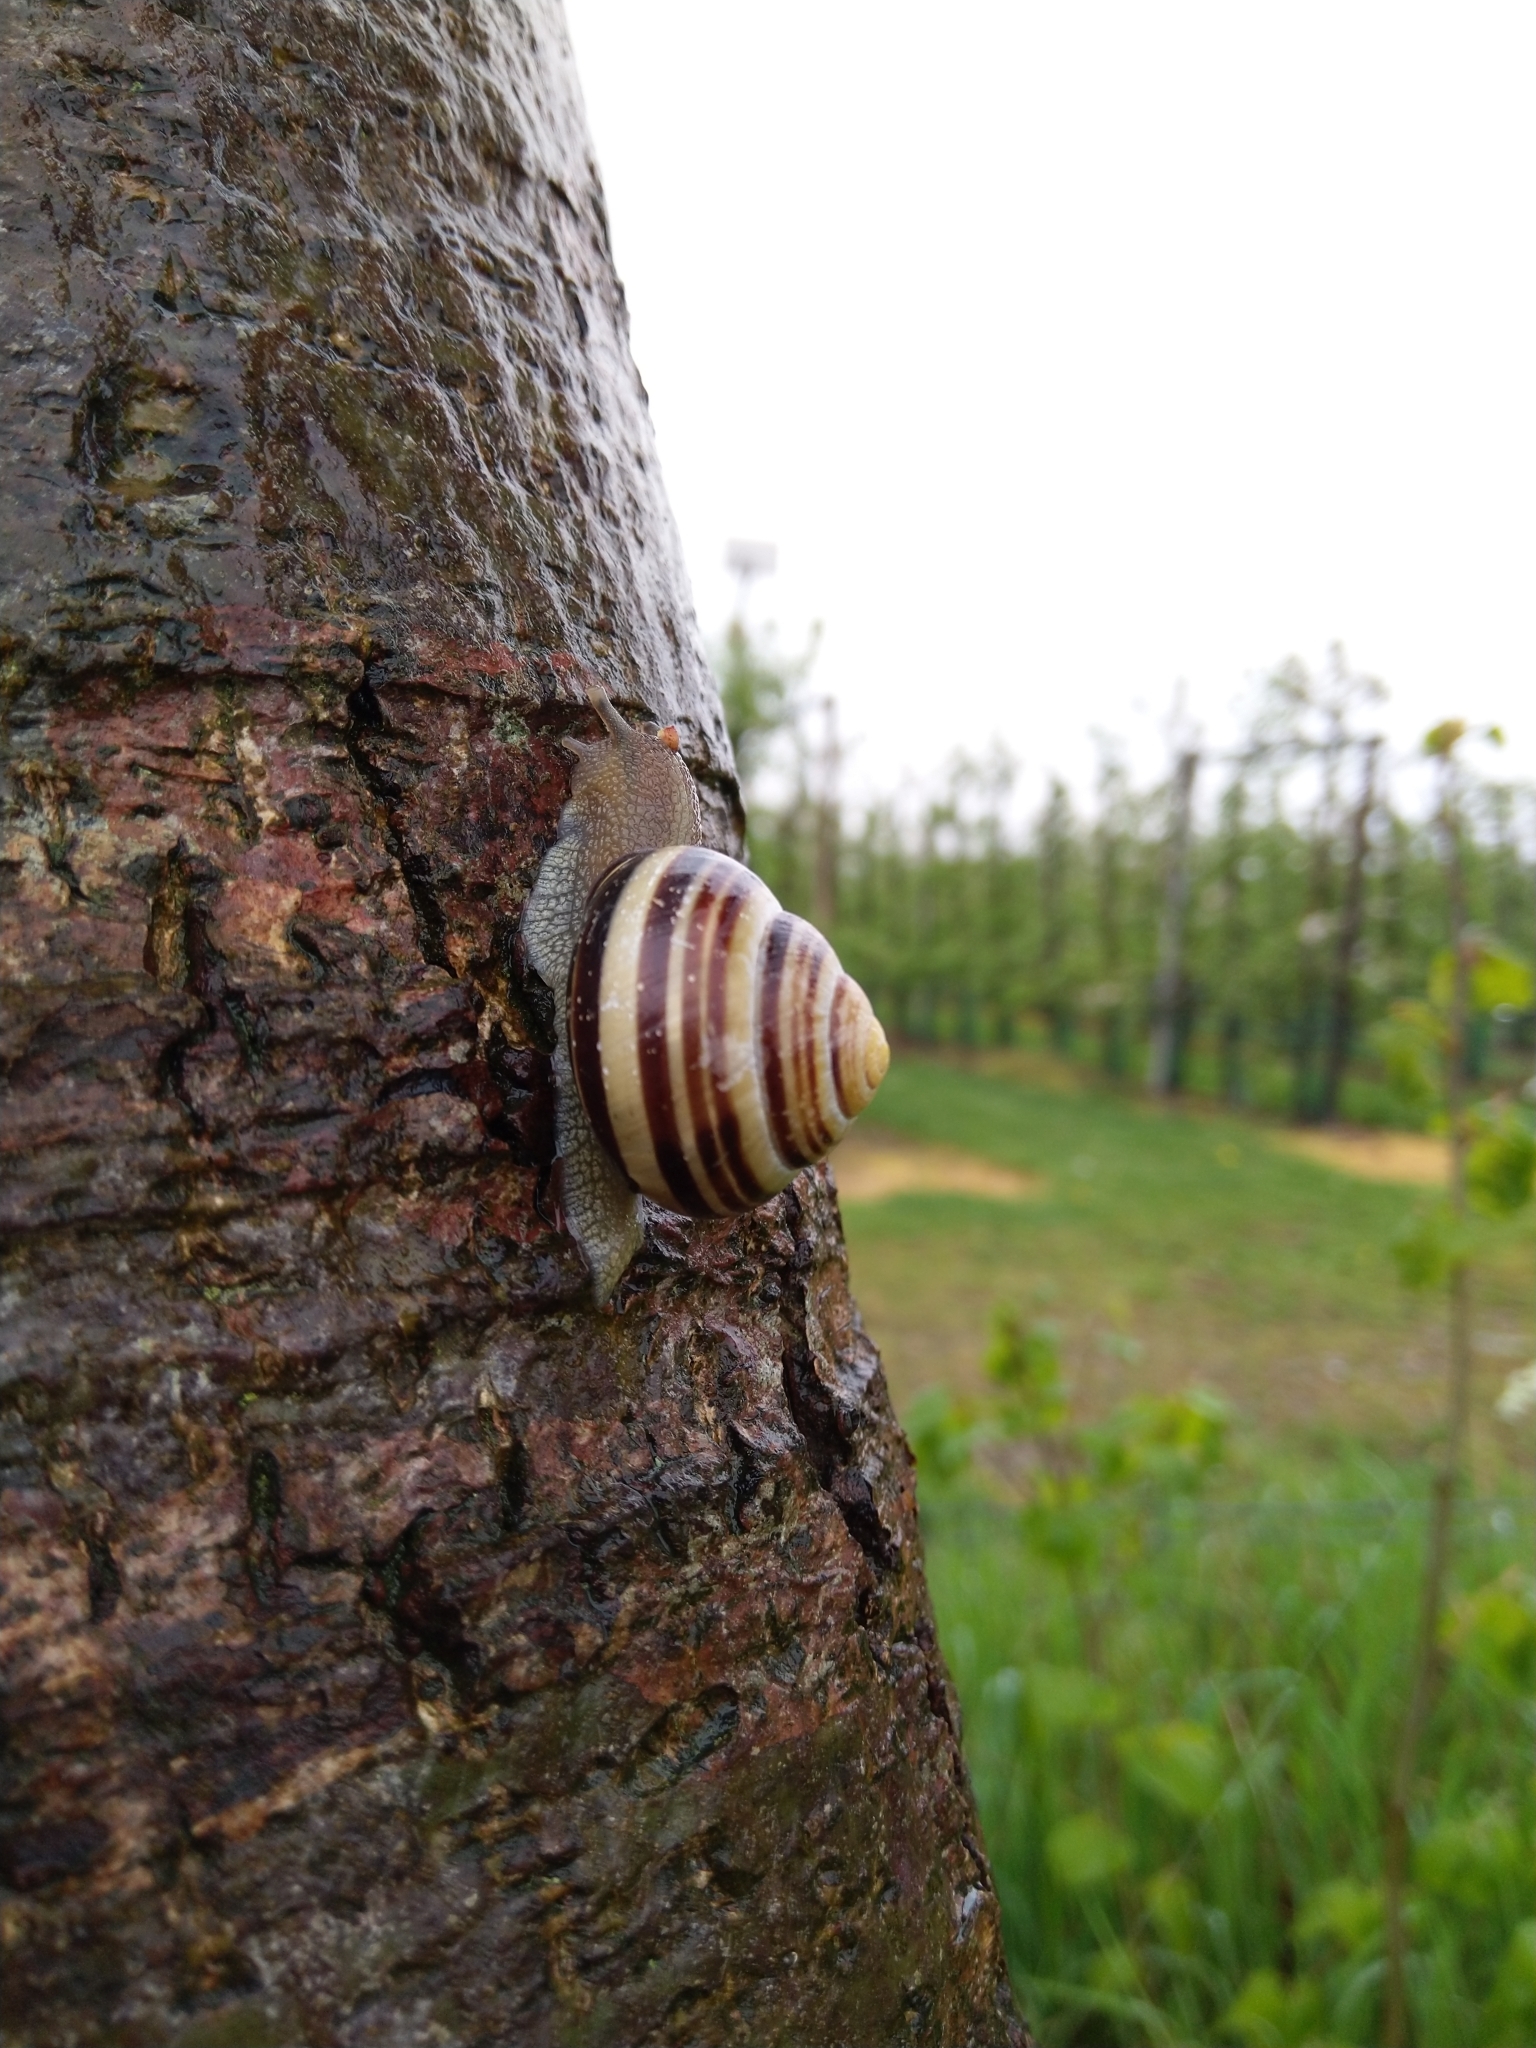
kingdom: Animalia
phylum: Mollusca
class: Gastropoda
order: Stylommatophora
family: Helicidae
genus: Cepaea
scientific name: Cepaea nemoralis
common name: Grovesnail
